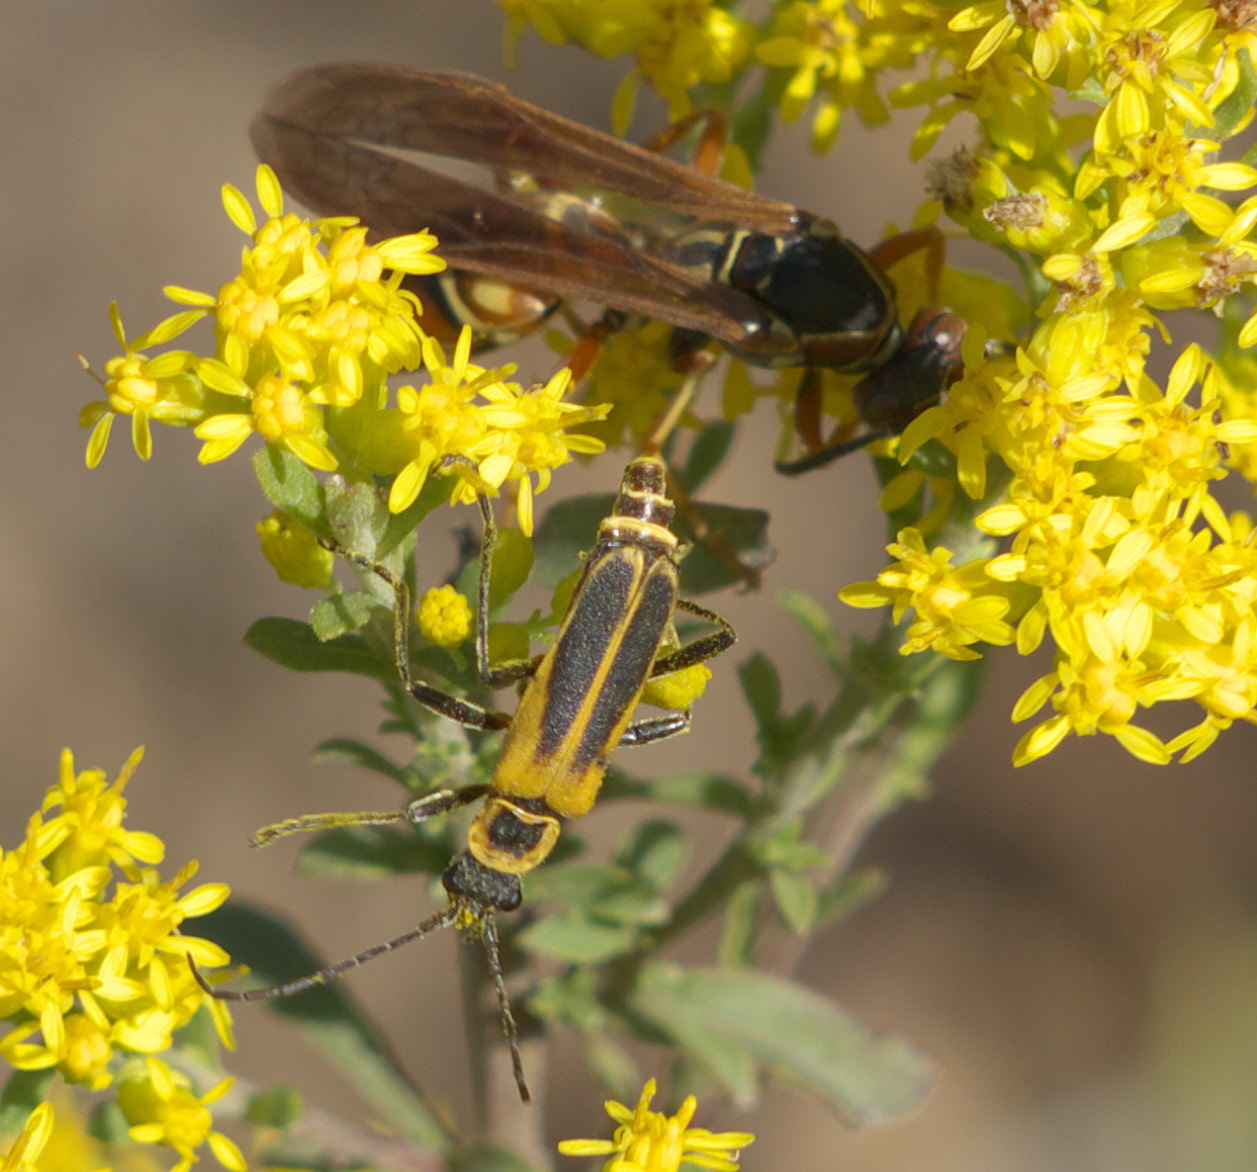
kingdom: Animalia
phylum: Arthropoda
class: Insecta
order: Coleoptera
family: Cantharidae
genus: Chauliognathus
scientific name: Chauliognathus pensylvanicus
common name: Goldenrod soldier beetle
